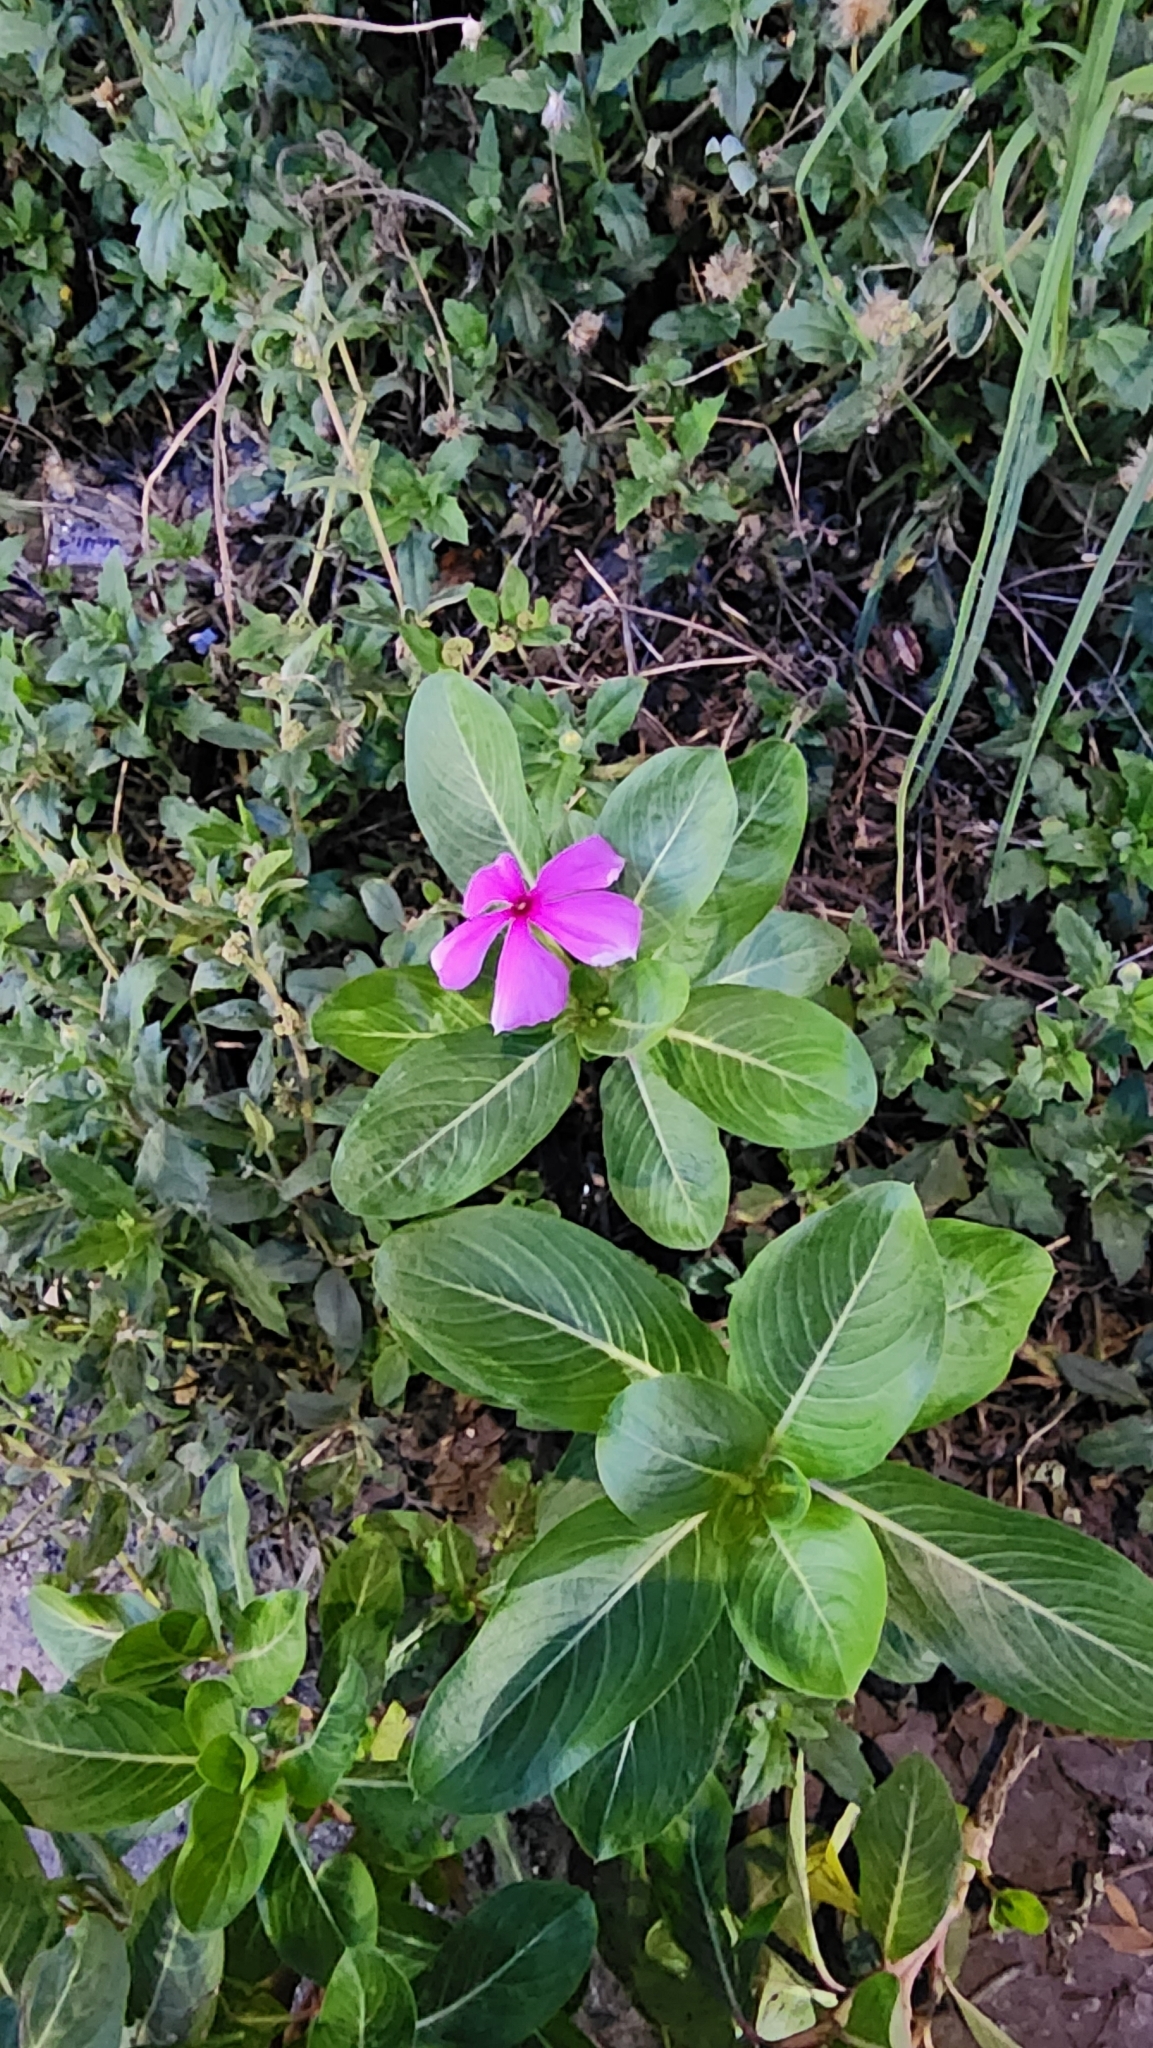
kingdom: Plantae
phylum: Tracheophyta
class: Magnoliopsida
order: Gentianales
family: Apocynaceae
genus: Catharanthus
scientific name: Catharanthus roseus
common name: Madagascar periwinkle
